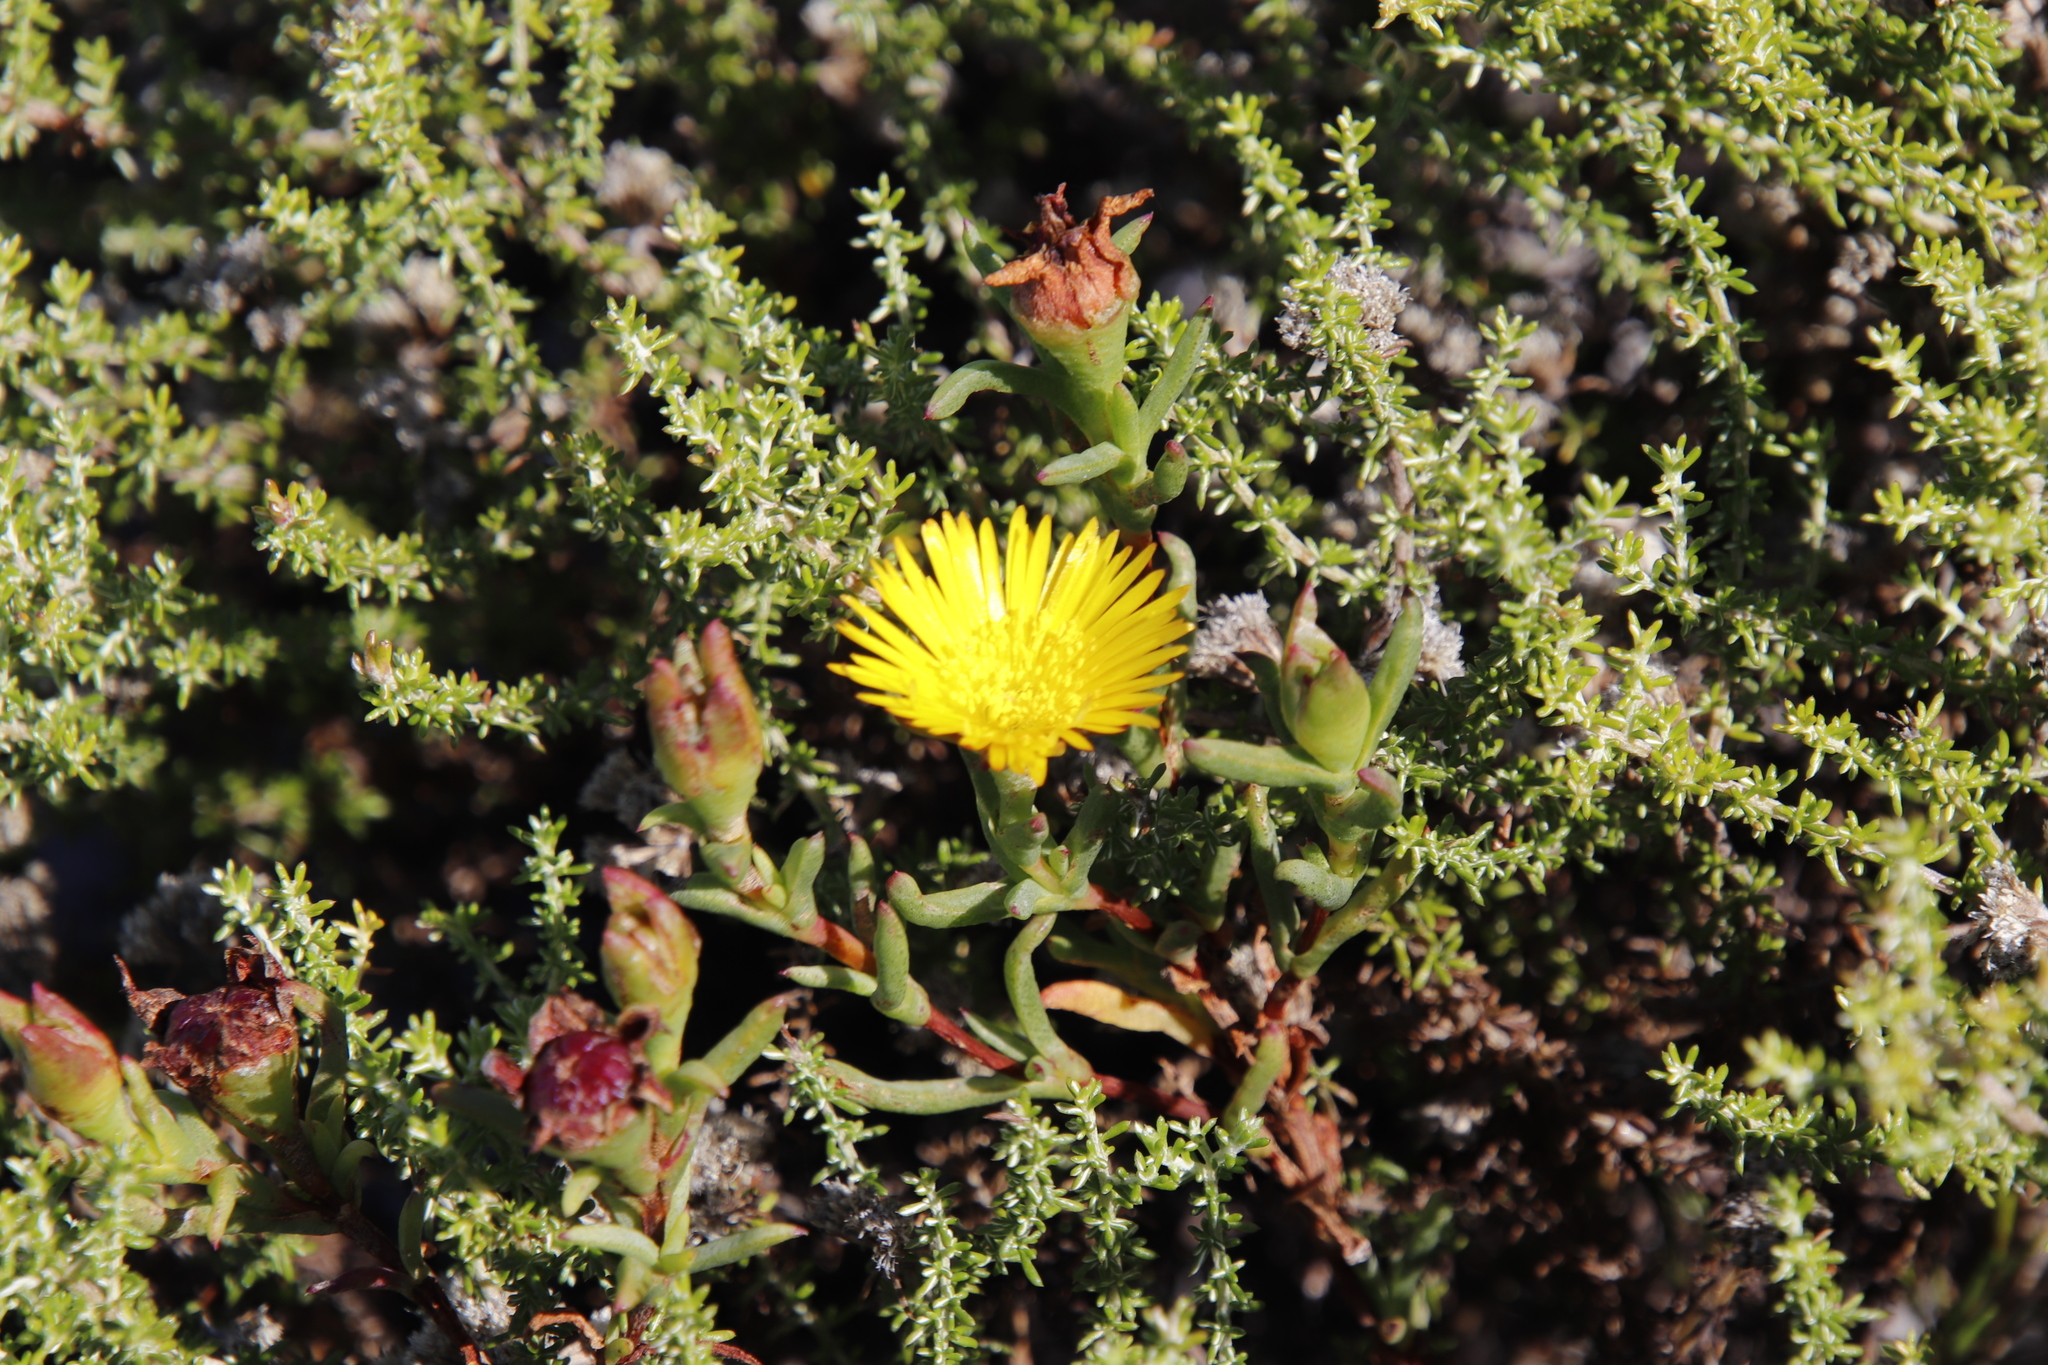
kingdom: Plantae
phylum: Tracheophyta
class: Magnoliopsida
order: Caryophyllales
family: Aizoaceae
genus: Lampranthus
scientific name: Lampranthus promontorii
